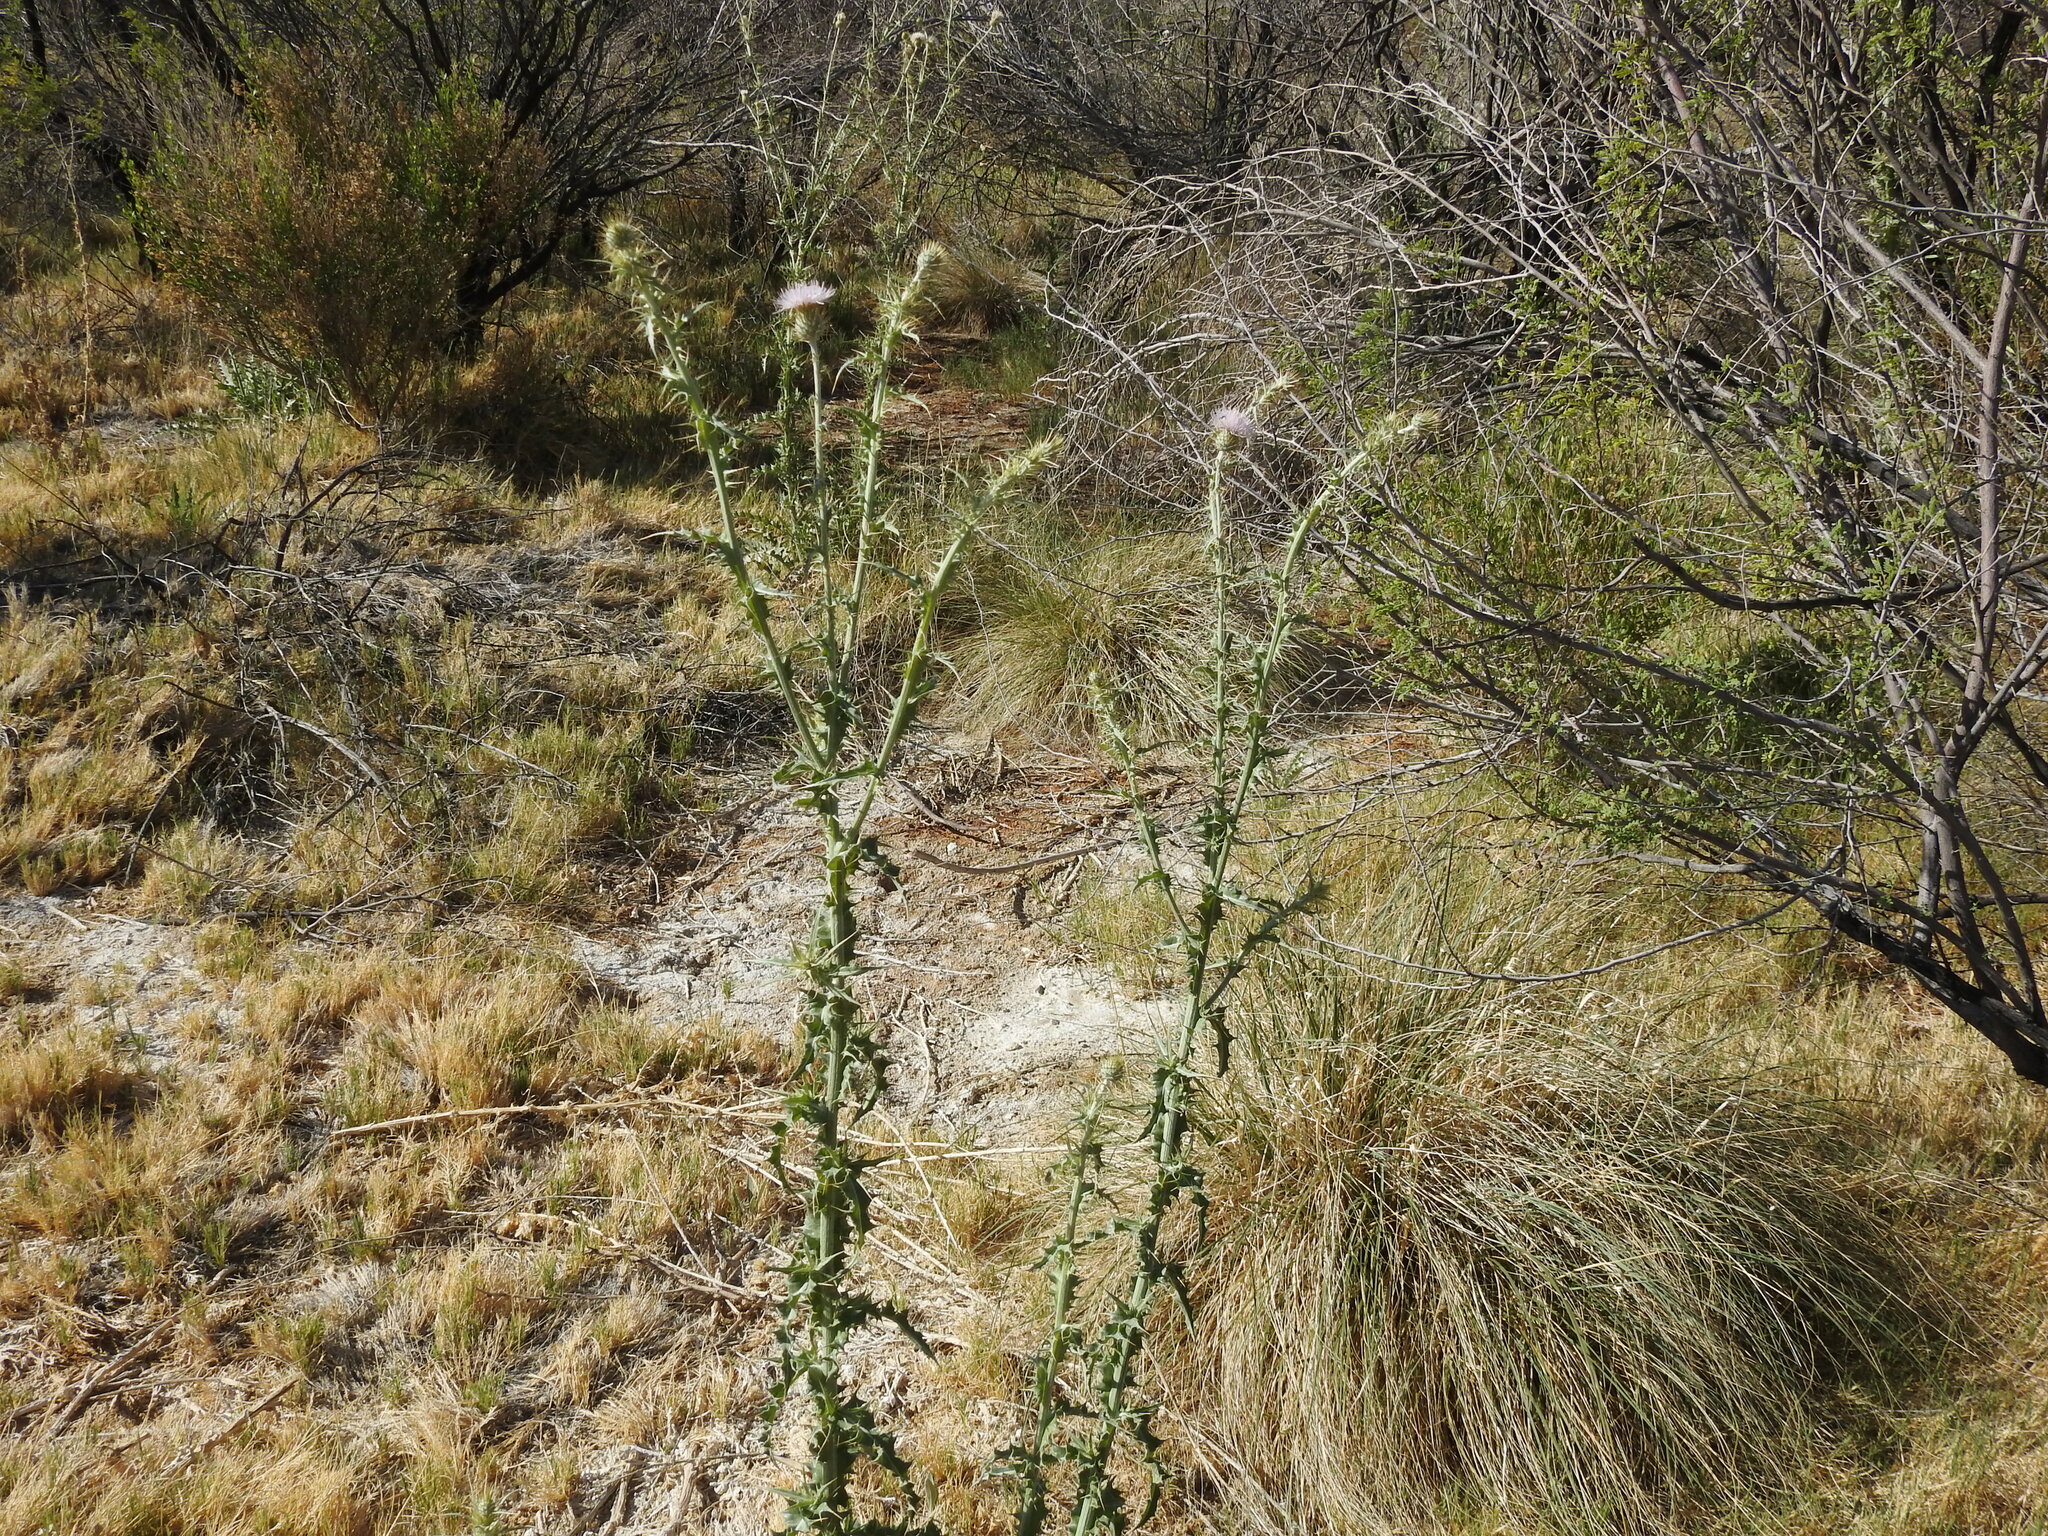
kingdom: Plantae
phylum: Tracheophyta
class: Magnoliopsida
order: Asterales
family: Asteraceae
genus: Cirsium
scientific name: Cirsium mohavense
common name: Mojave thistle
